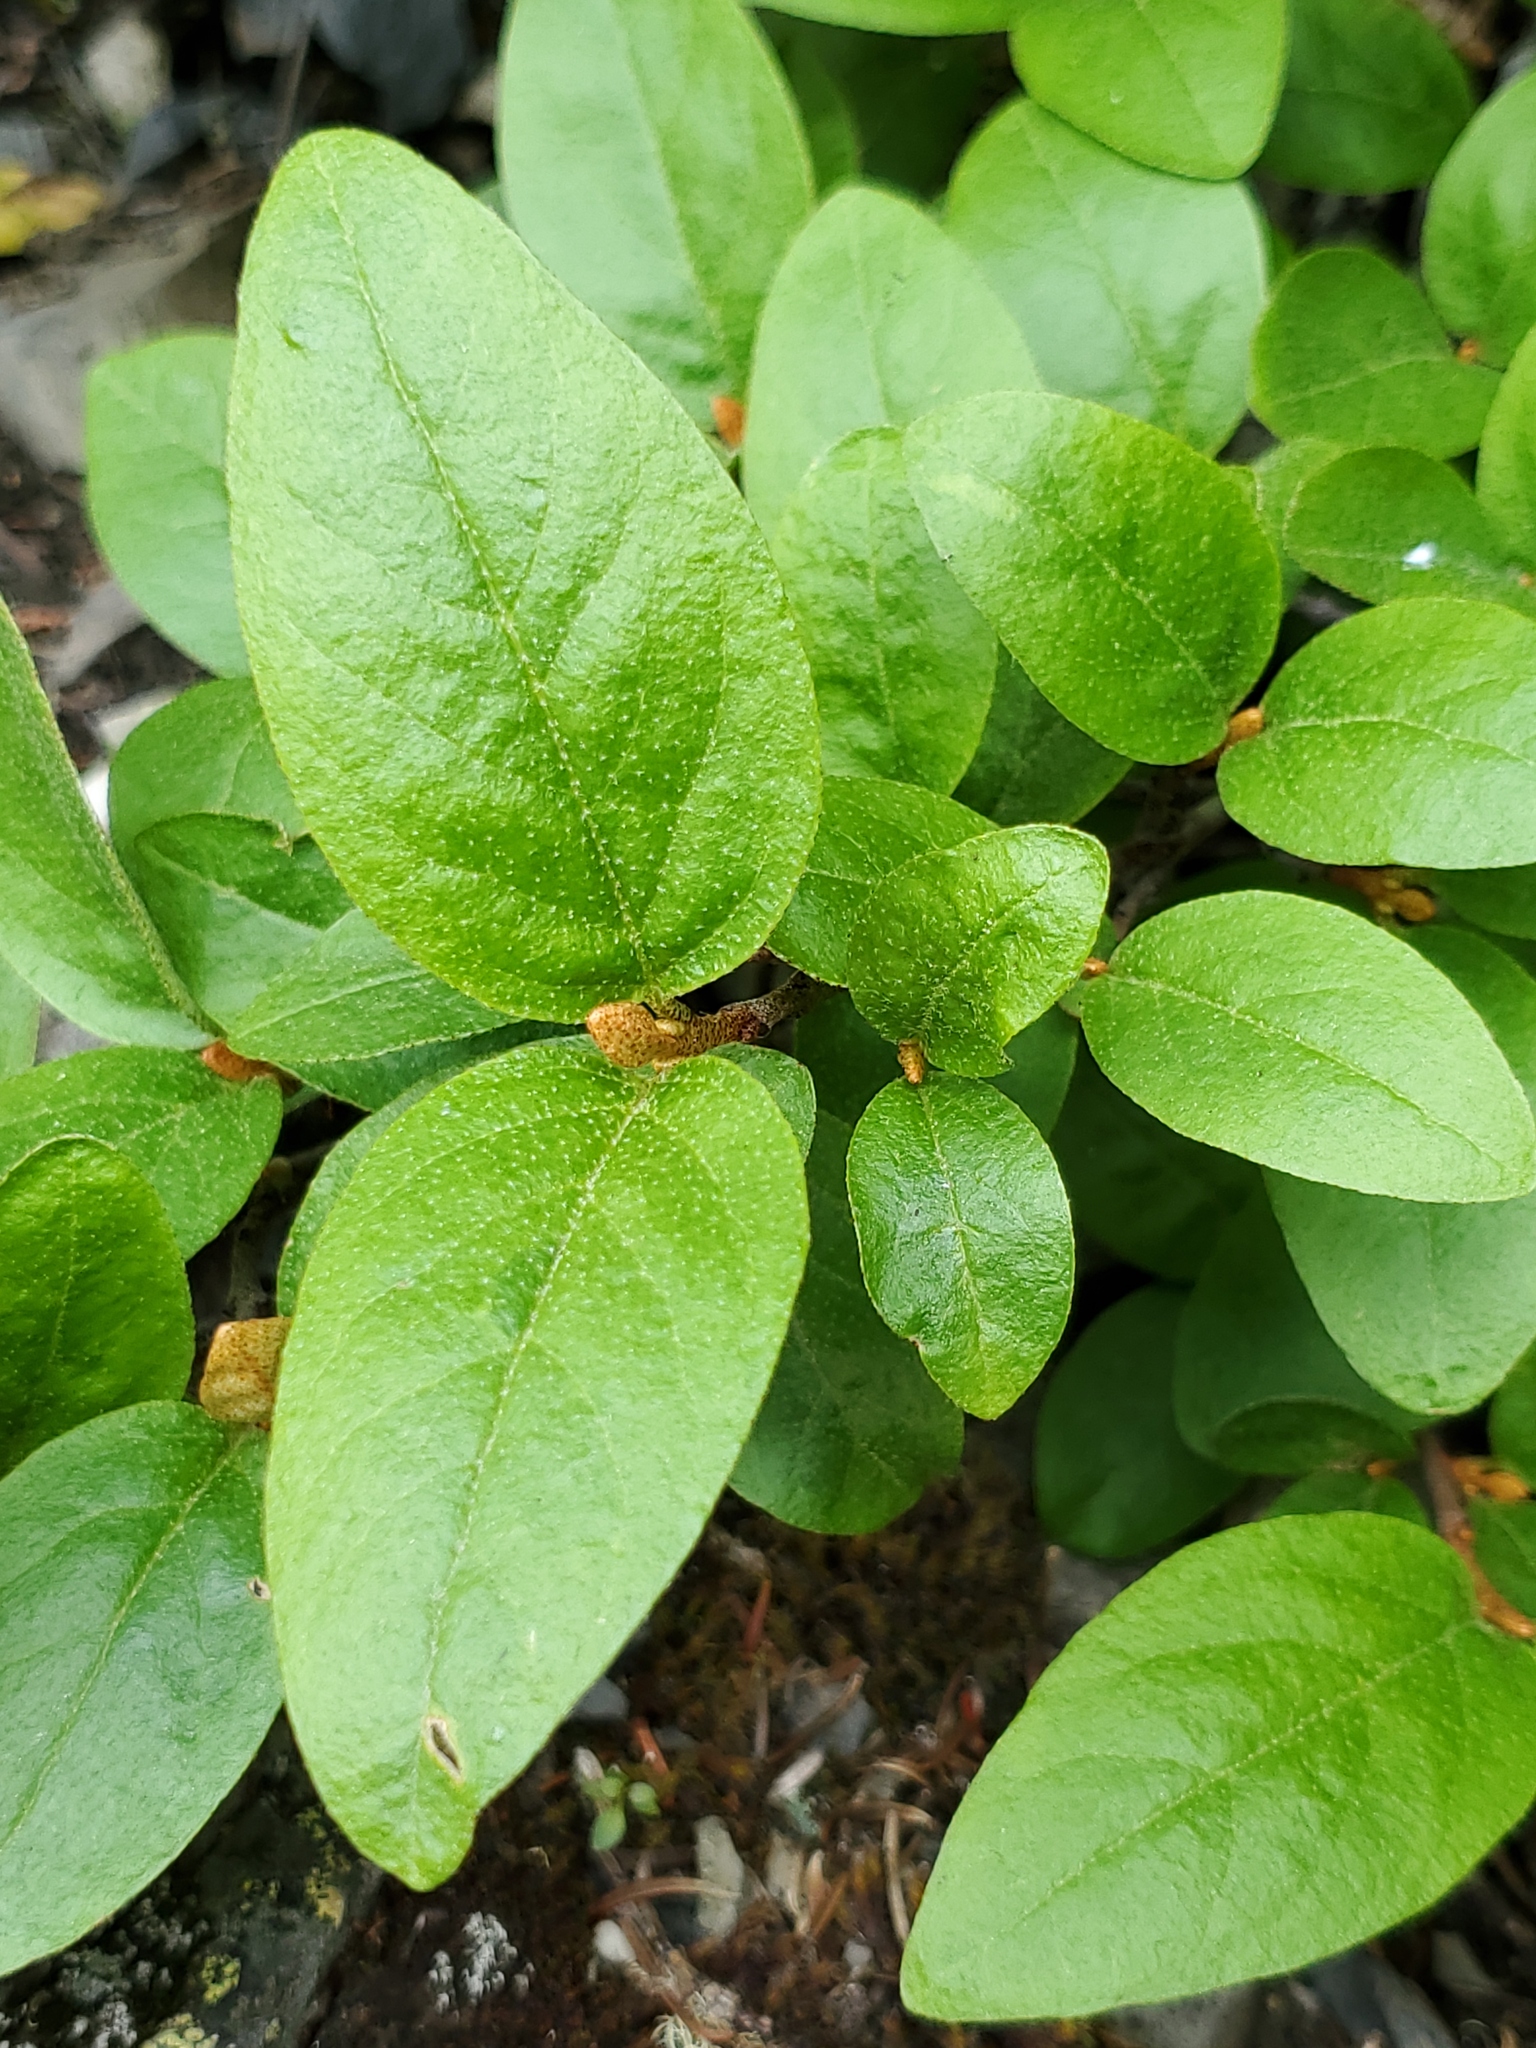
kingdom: Plantae
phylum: Tracheophyta
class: Magnoliopsida
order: Rosales
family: Elaeagnaceae
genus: Shepherdia
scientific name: Shepherdia canadensis
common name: Soapberry
